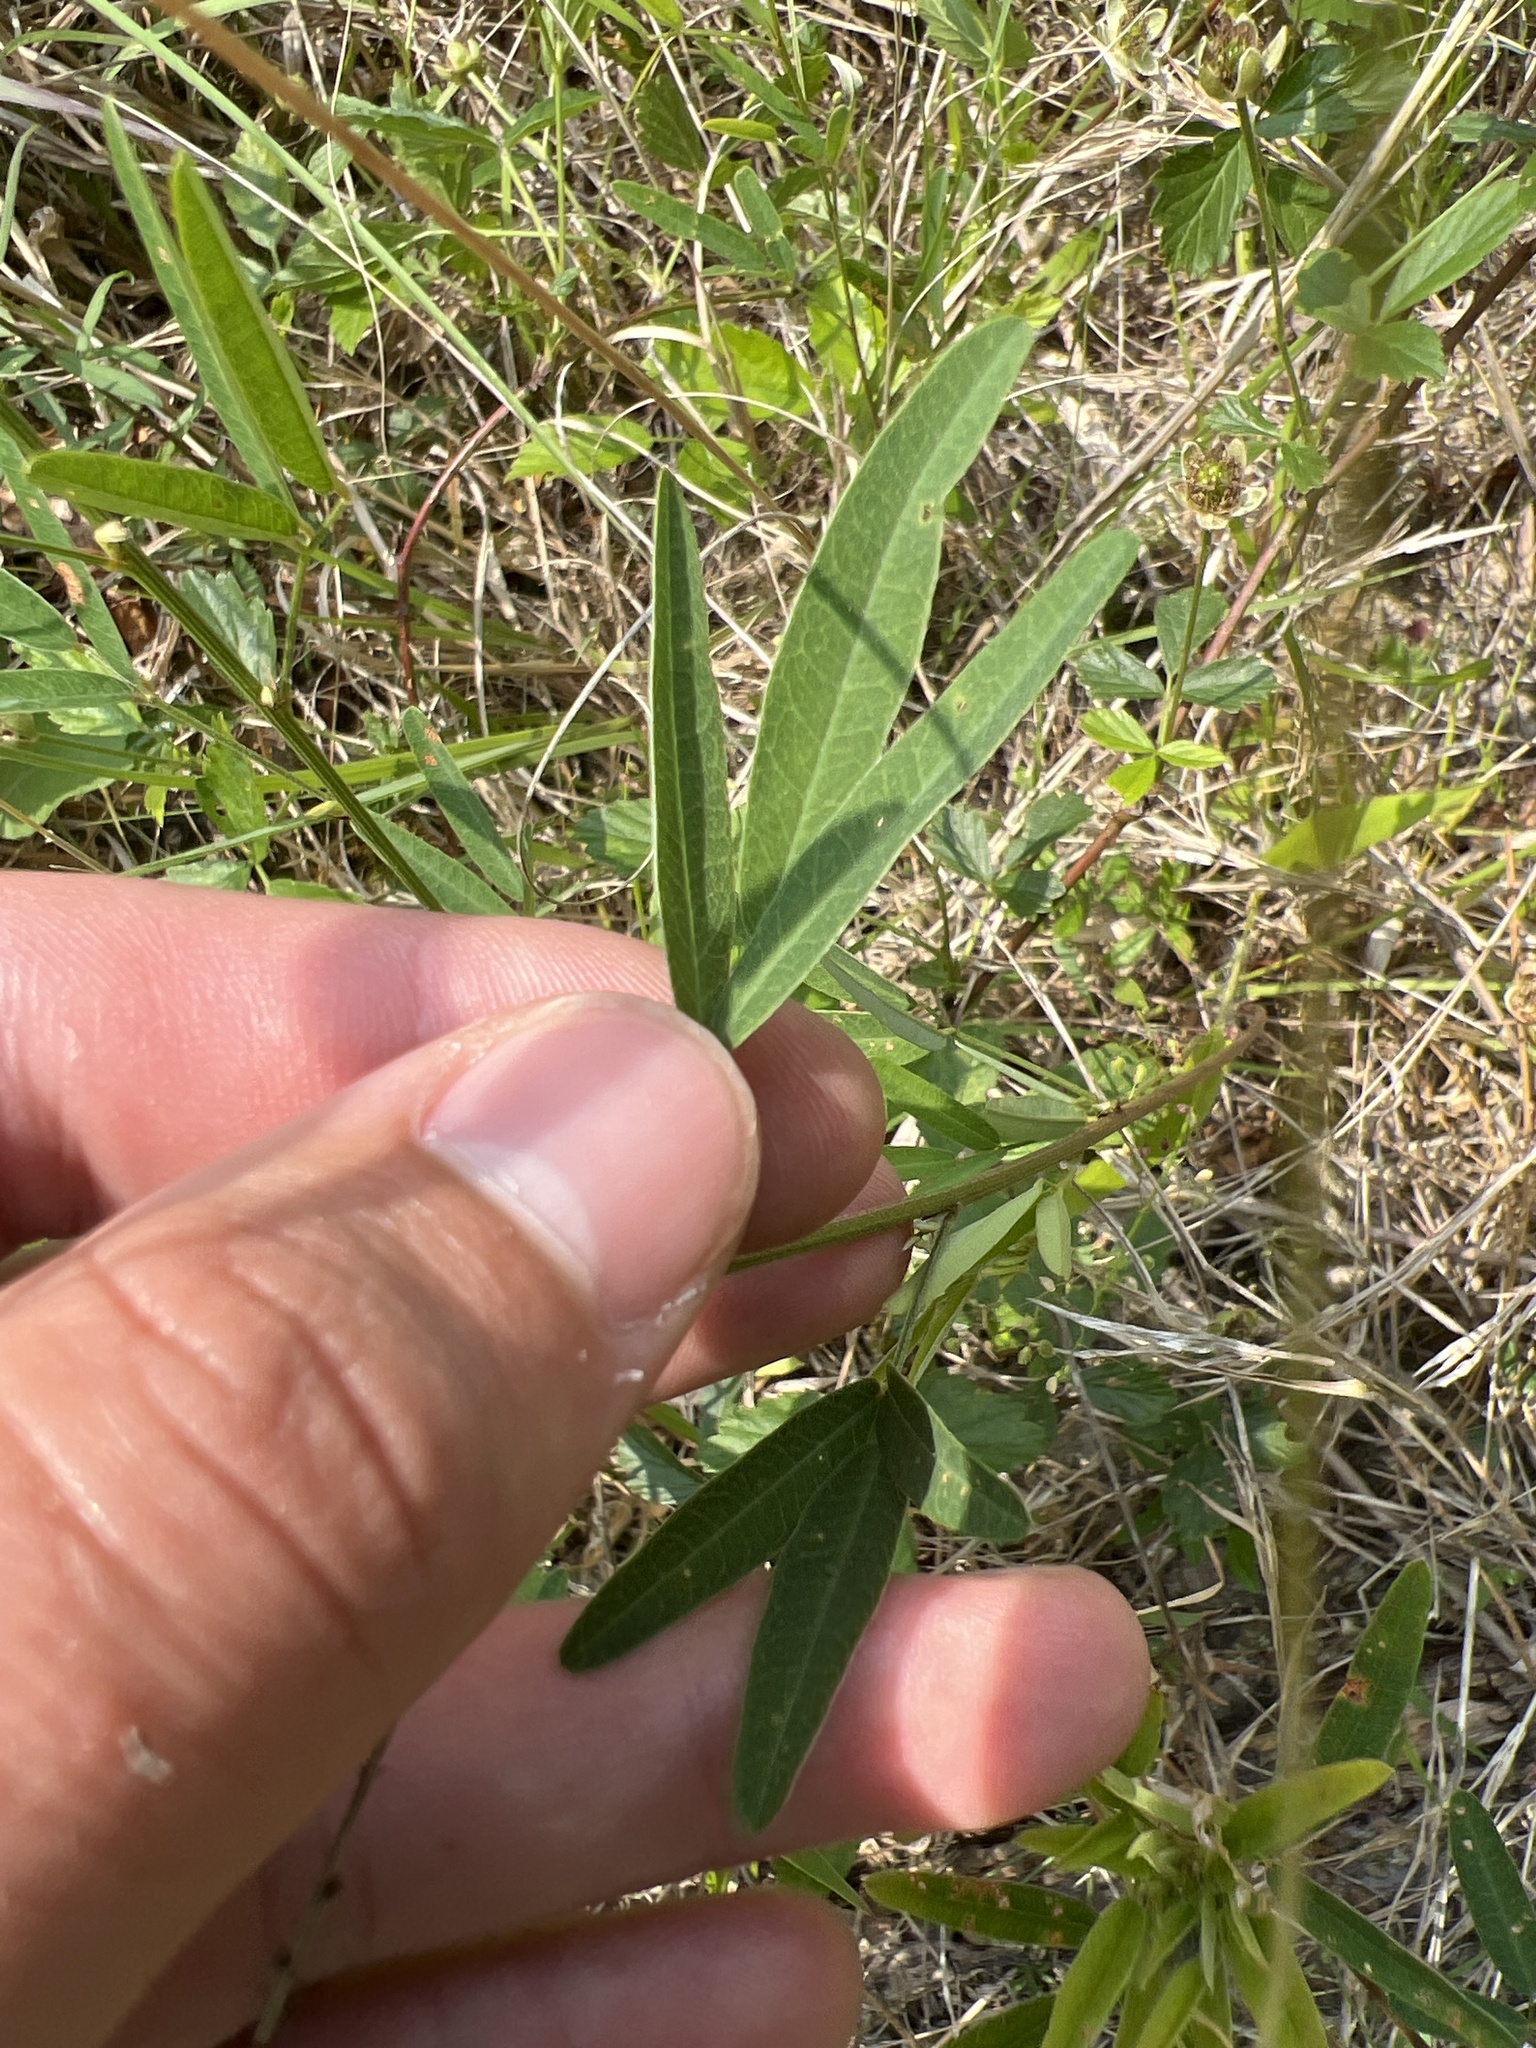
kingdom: Plantae
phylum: Tracheophyta
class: Magnoliopsida
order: Fabales
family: Fabaceae
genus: Lespedeza
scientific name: Lespedeza virginica
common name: Slender bush-clover
